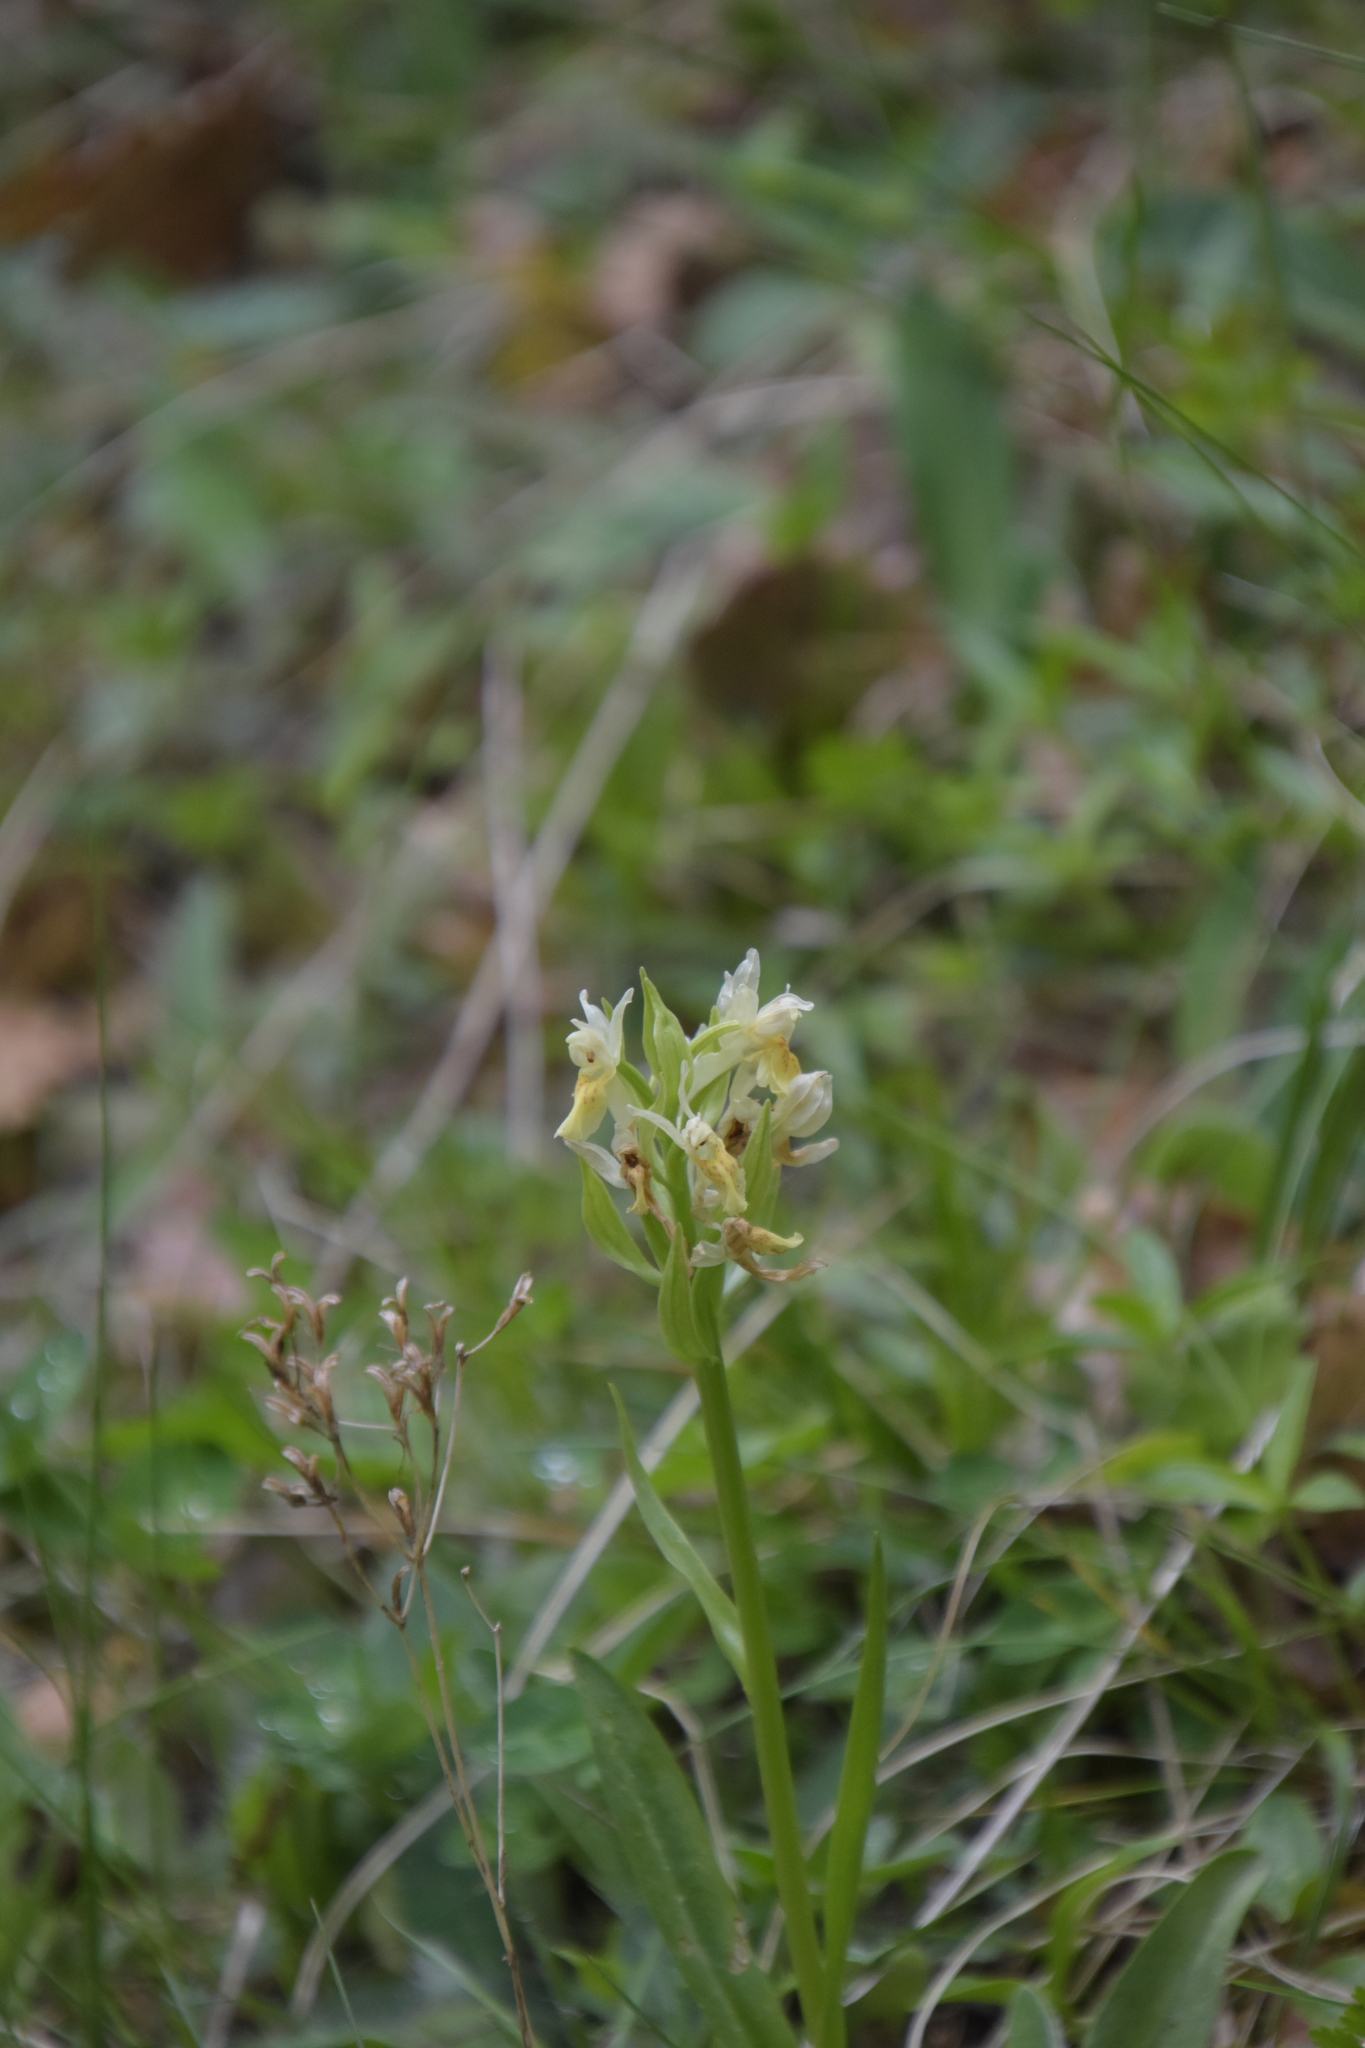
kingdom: Plantae
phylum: Tracheophyta
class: Liliopsida
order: Asparagales
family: Orchidaceae
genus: Dactylorhiza
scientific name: Dactylorhiza sambucina
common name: Elder-flowered orchid
